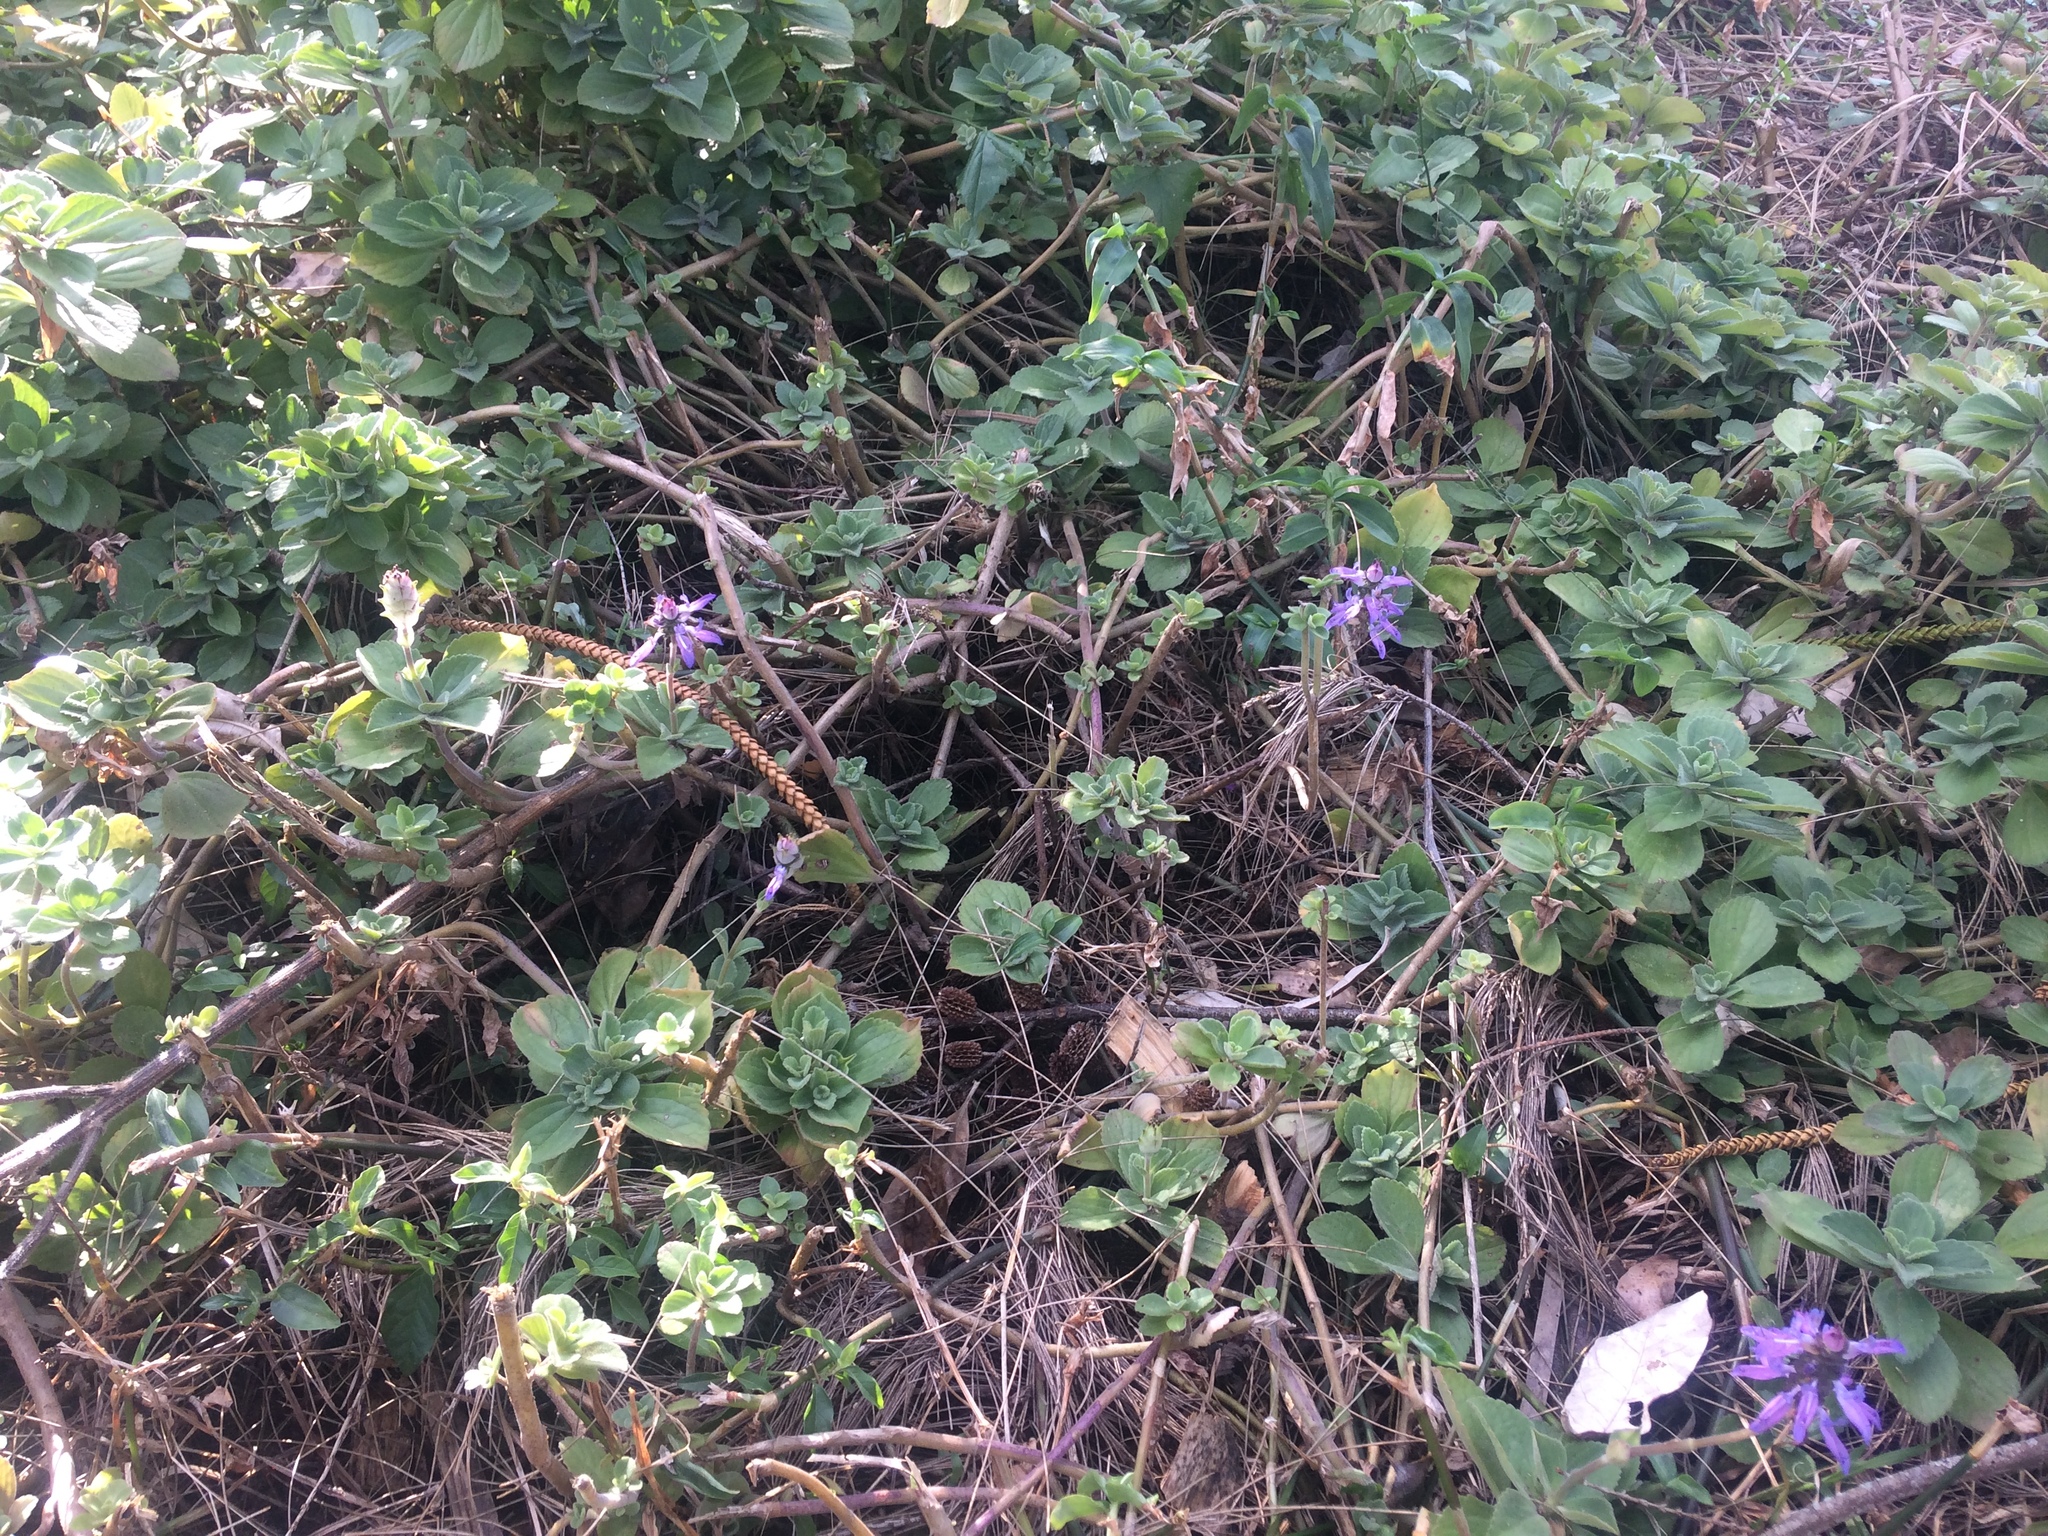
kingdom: Plantae
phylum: Tracheophyta
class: Magnoliopsida
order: Lamiales
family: Lamiaceae
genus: Coleus
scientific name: Coleus neochilus
